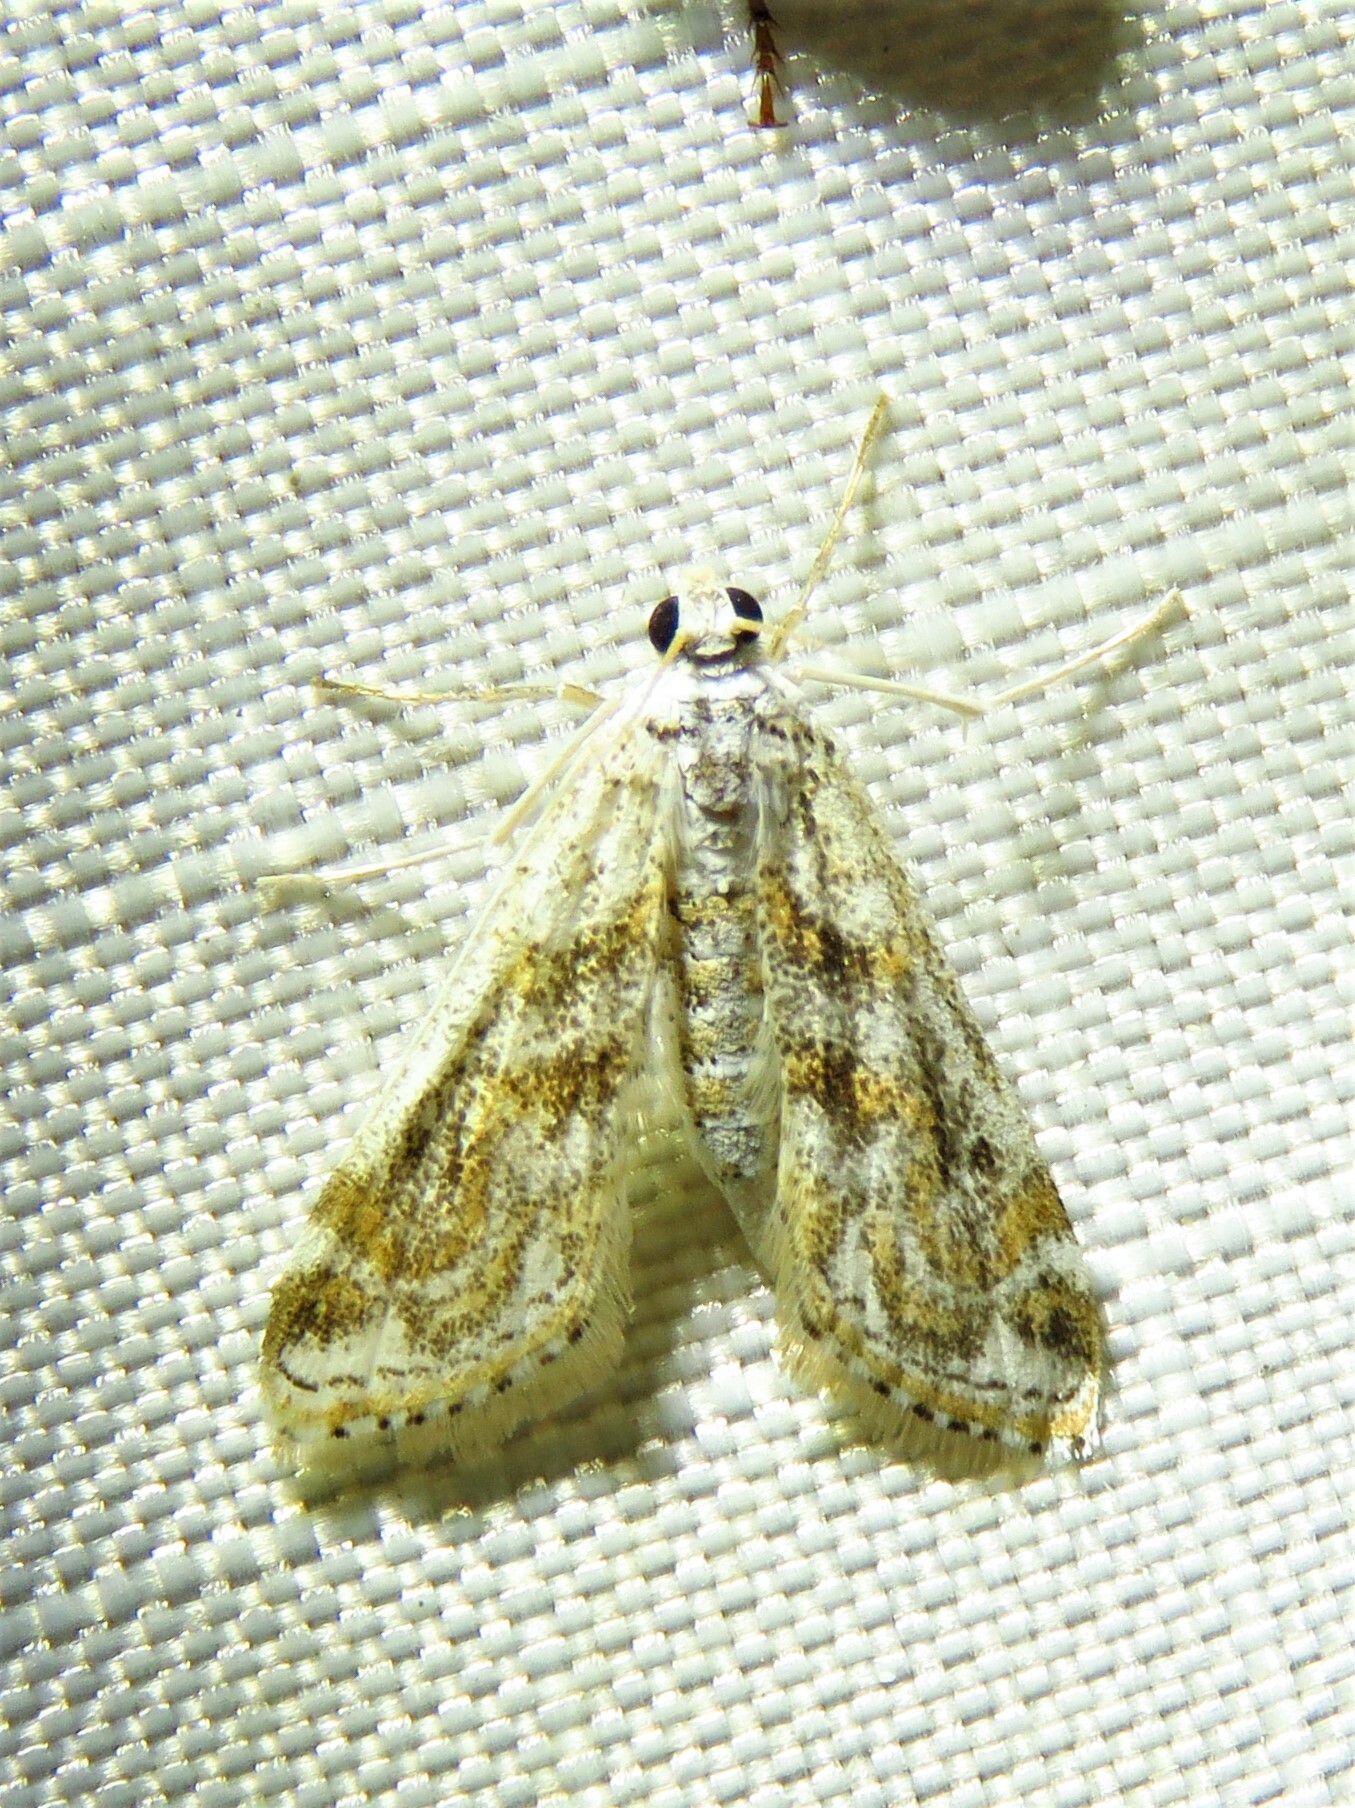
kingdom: Animalia
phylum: Arthropoda
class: Insecta
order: Lepidoptera
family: Crambidae
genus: Parapoynx
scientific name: Parapoynx diminutalis
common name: Hydrilla leafcutter
